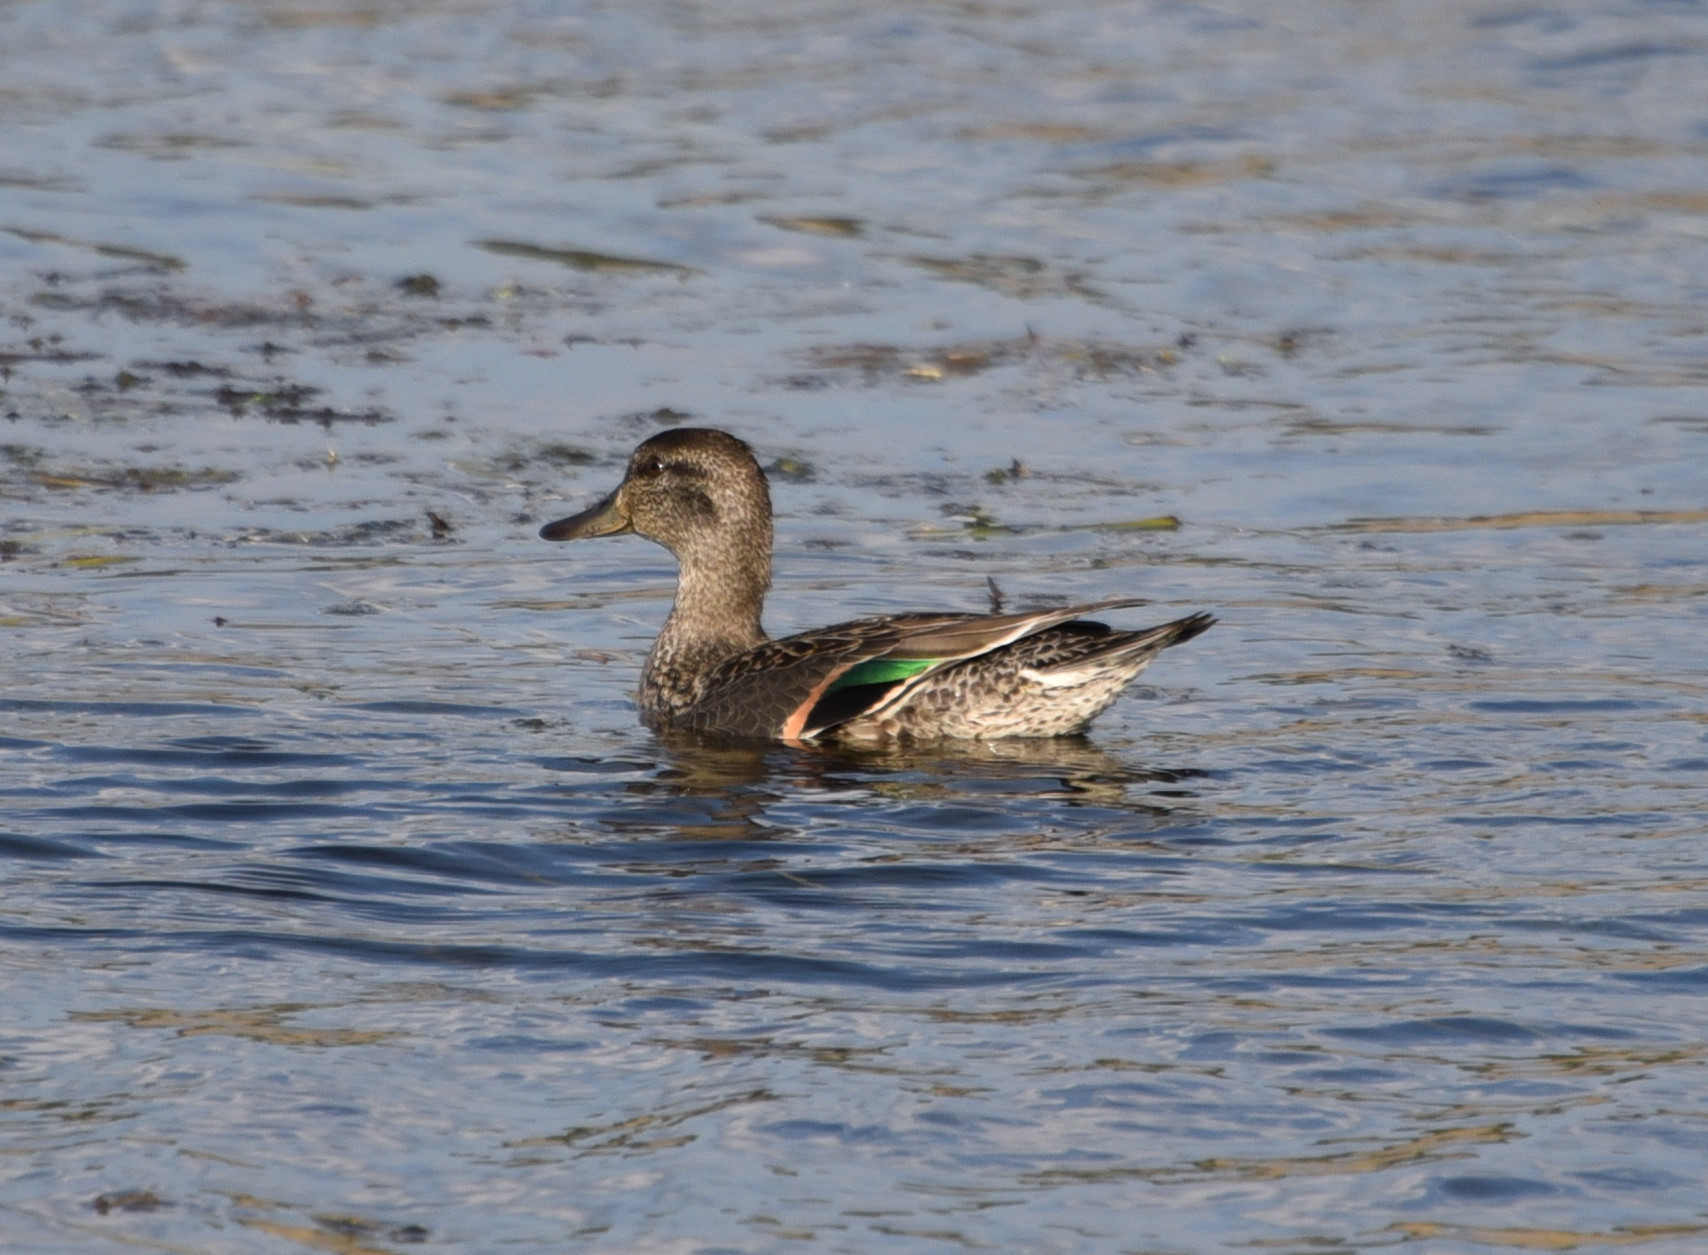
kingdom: Animalia
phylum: Chordata
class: Aves
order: Anseriformes
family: Anatidae
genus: Anas
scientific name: Anas crecca
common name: Eurasian teal
